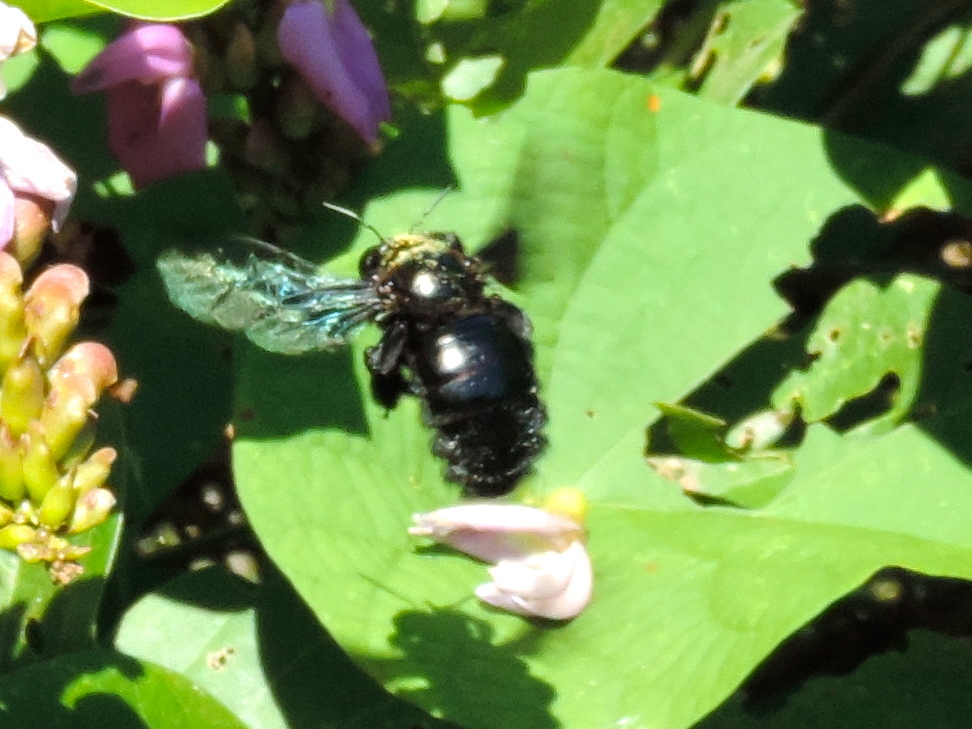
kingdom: Animalia
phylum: Arthropoda
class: Insecta
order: Hymenoptera
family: Apidae
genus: Xylocopa
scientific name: Xylocopa fimbriata
